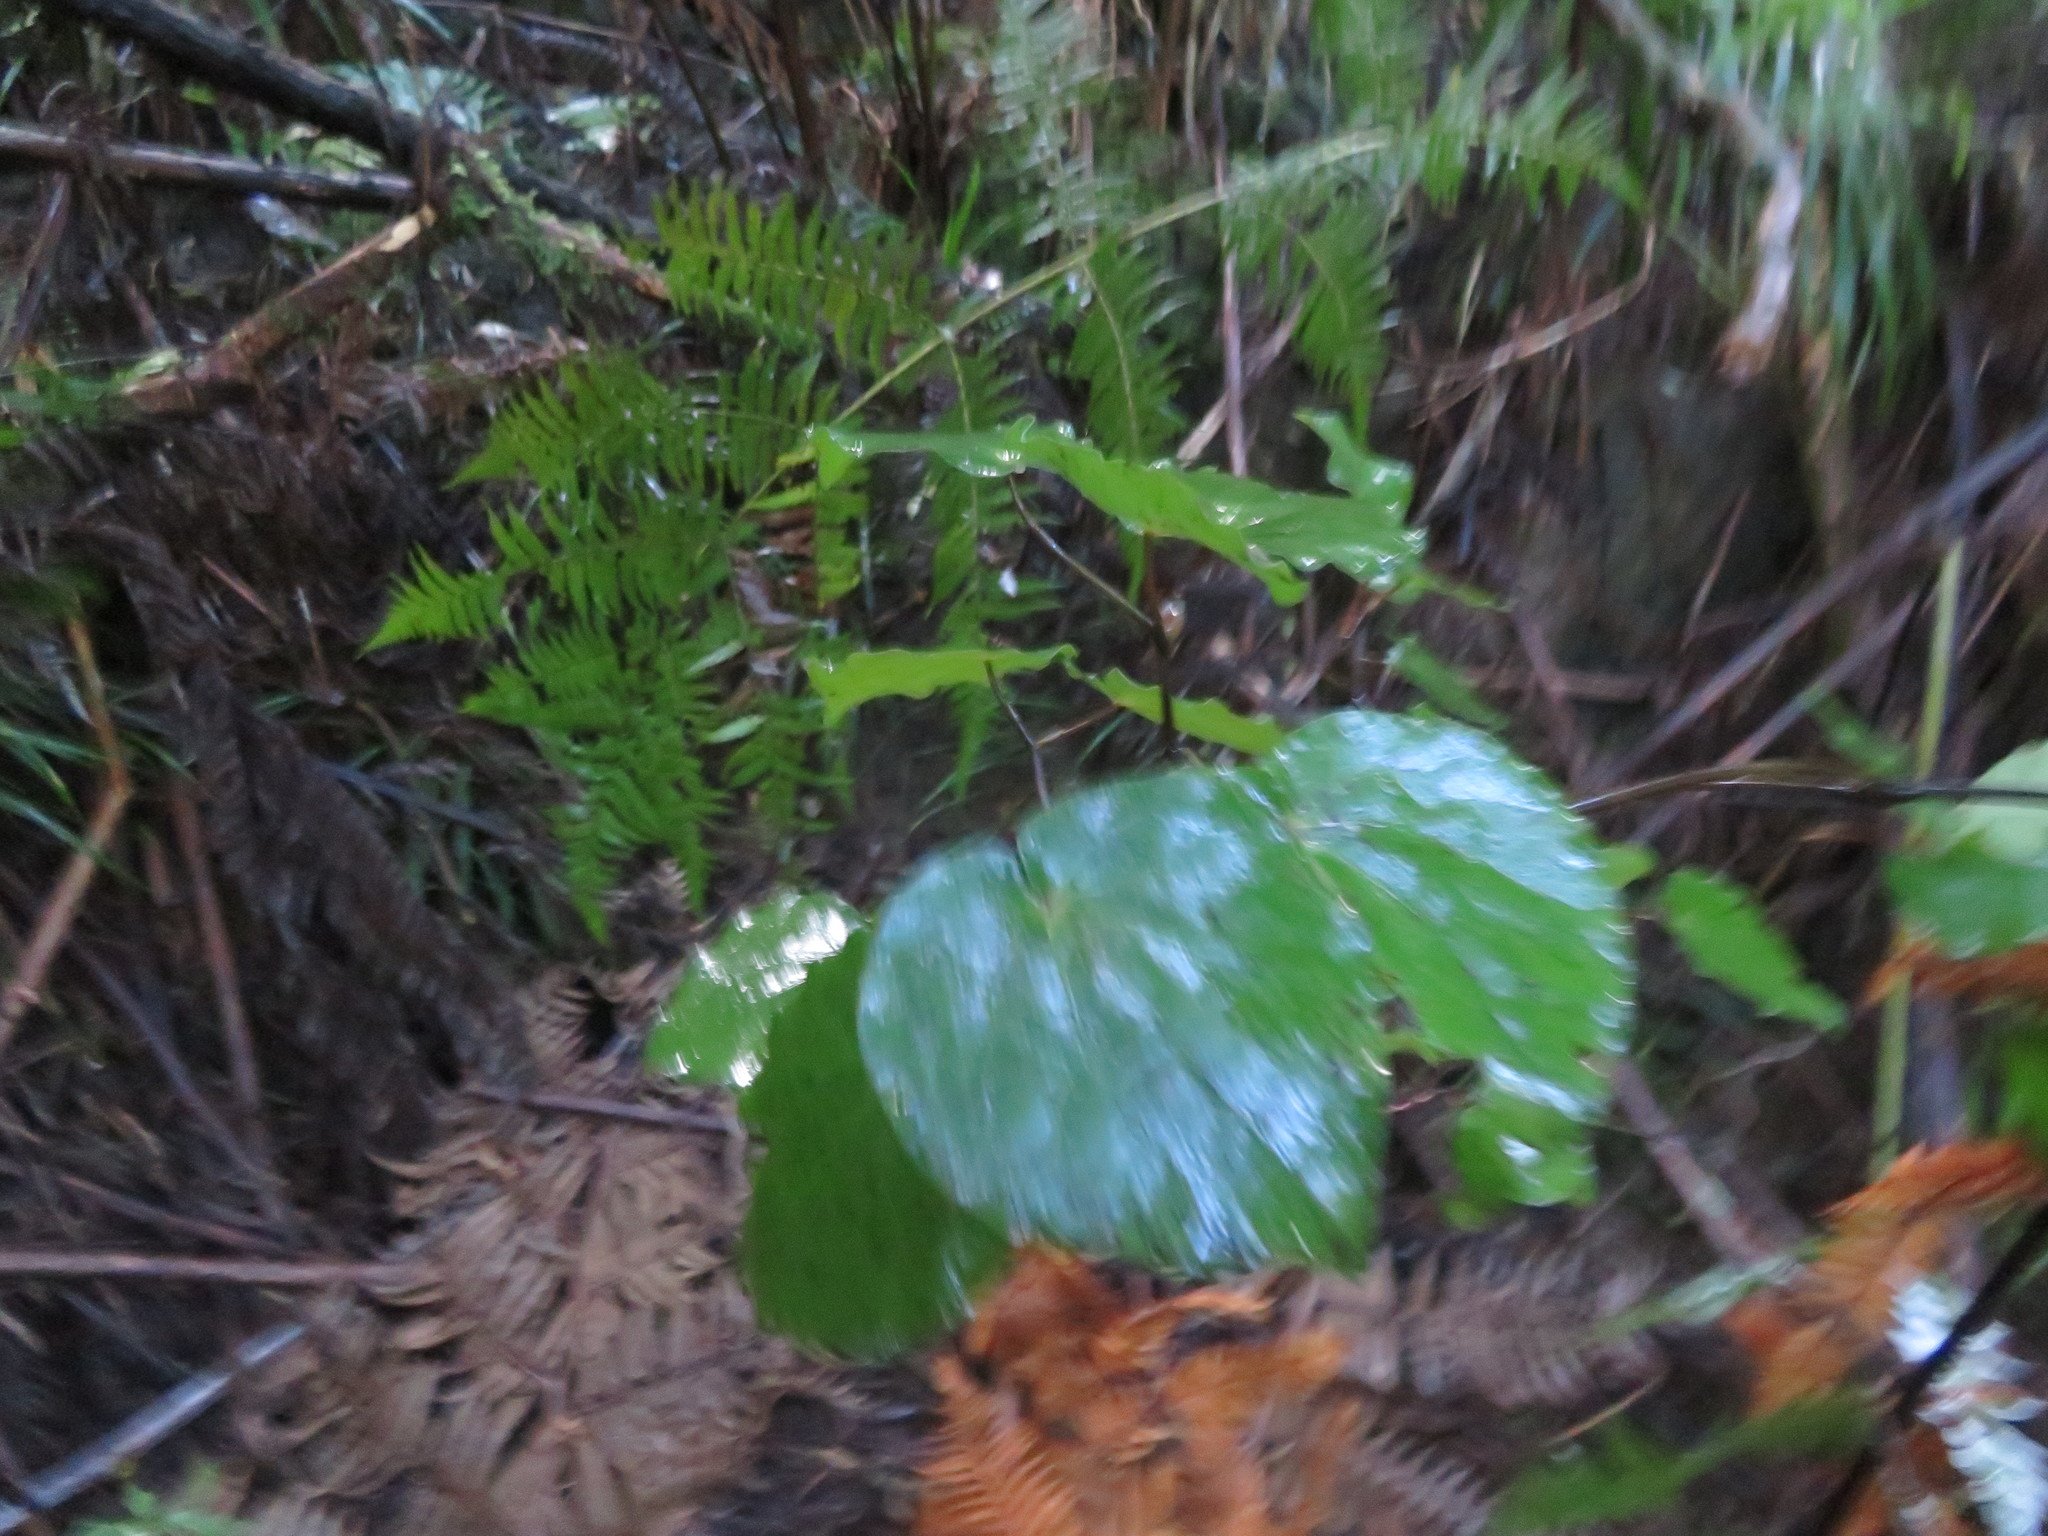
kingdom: Plantae
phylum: Tracheophyta
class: Magnoliopsida
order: Piperales
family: Piperaceae
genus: Macropiper
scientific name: Macropiper excelsum
